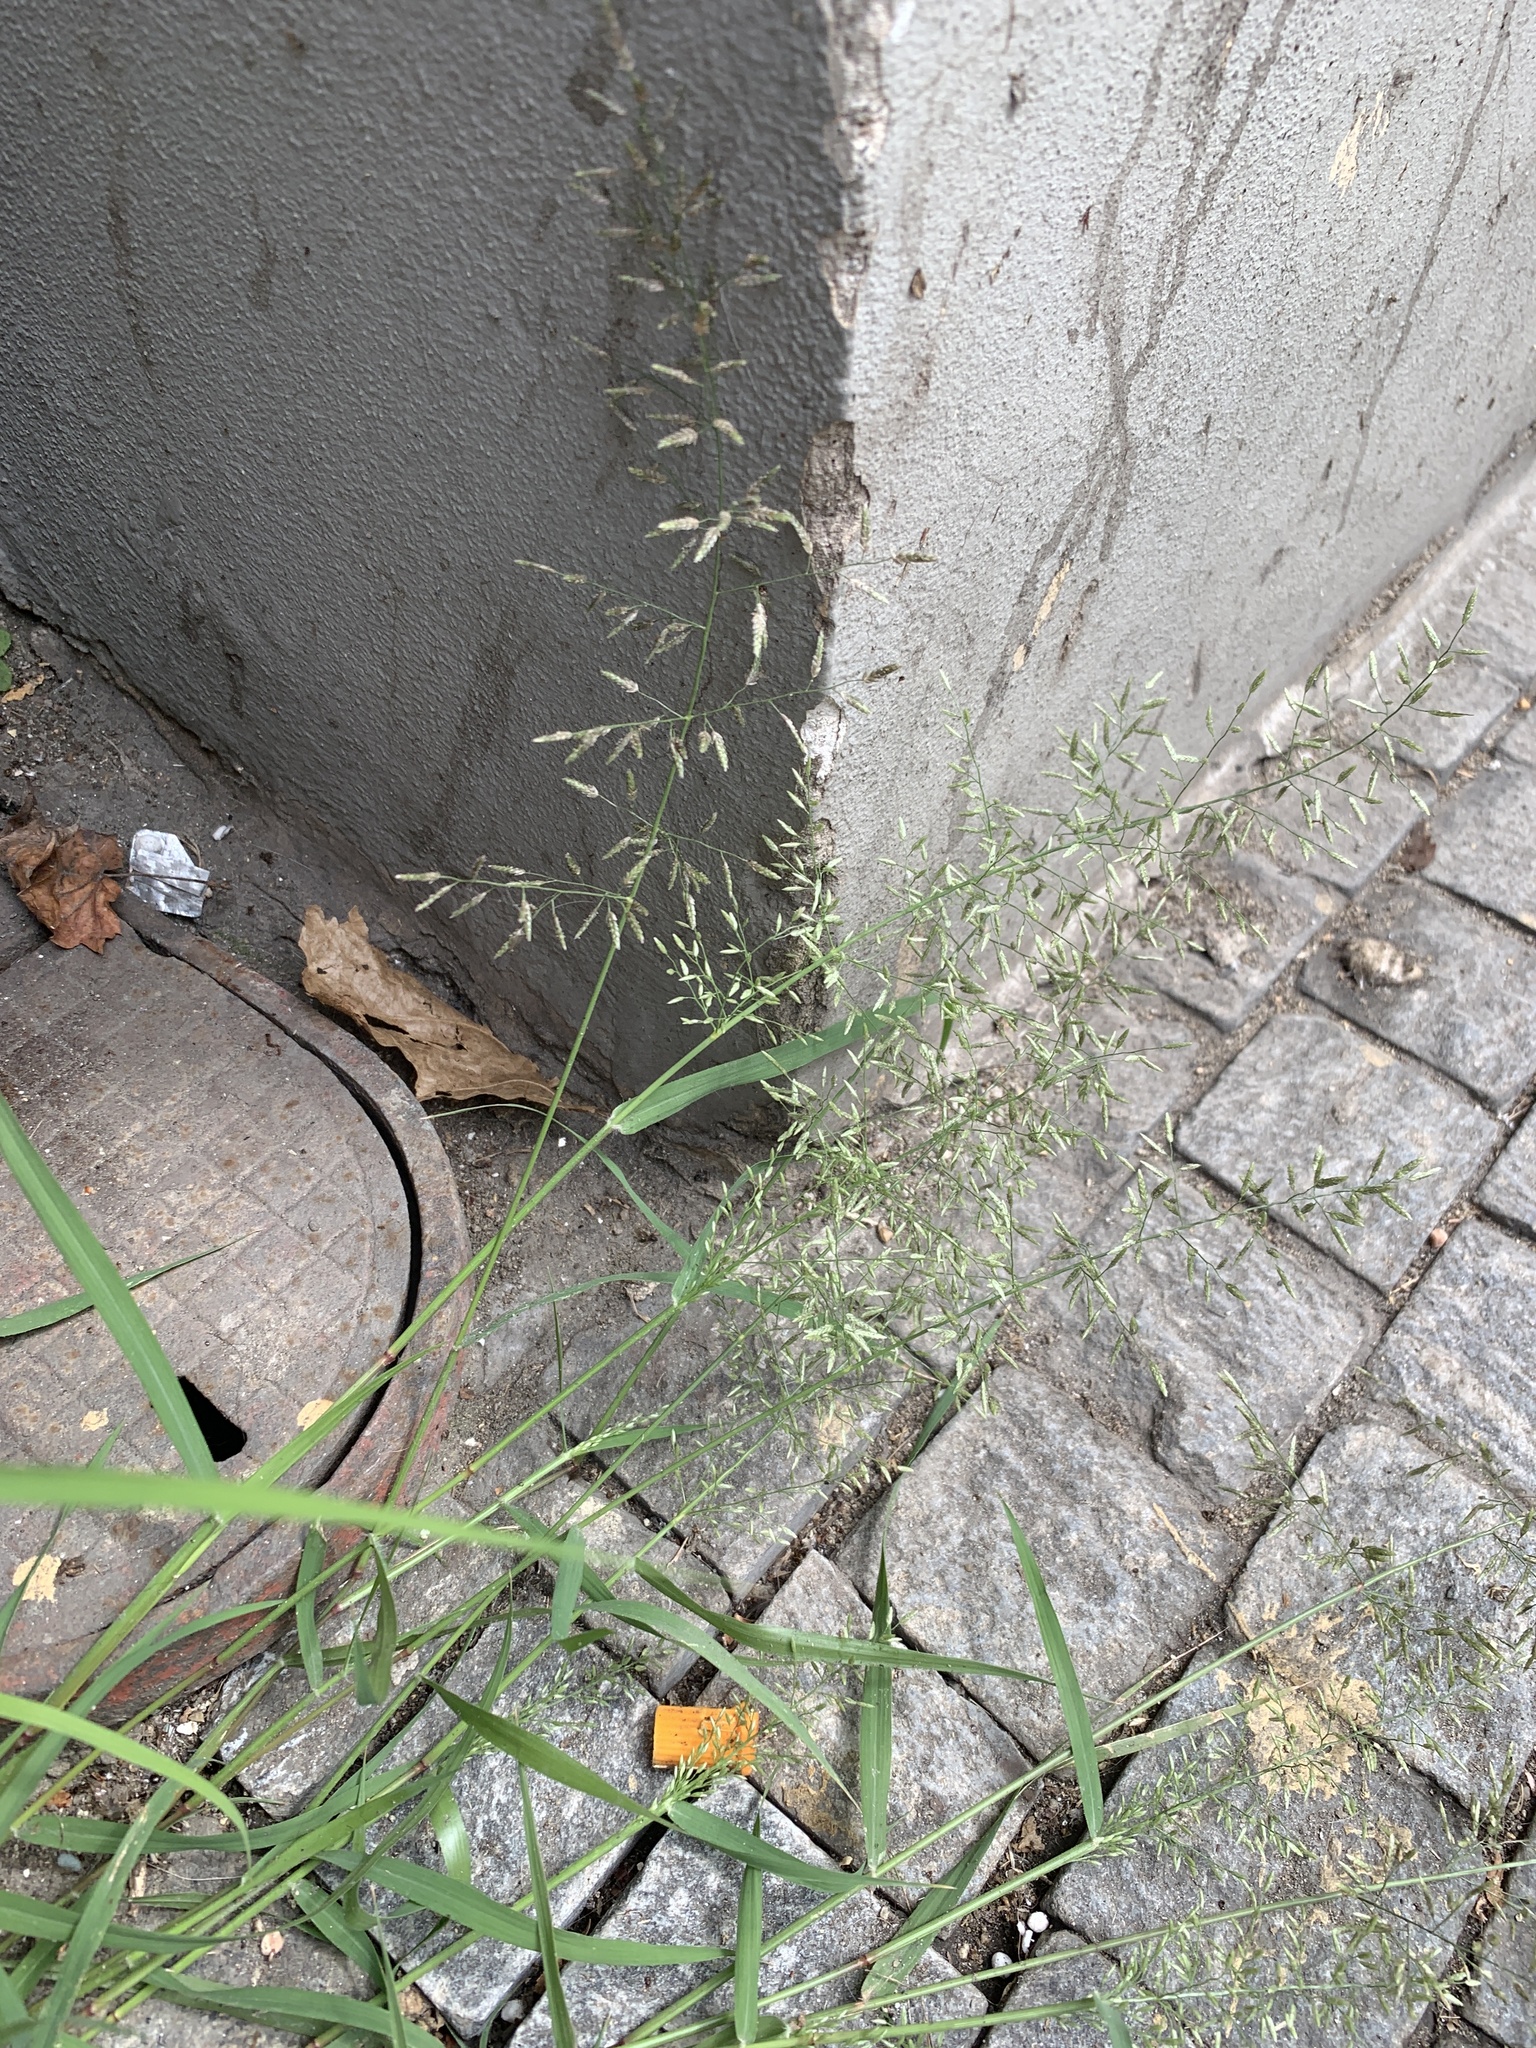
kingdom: Plantae
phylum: Tracheophyta
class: Liliopsida
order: Poales
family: Poaceae
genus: Eragrostis
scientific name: Eragrostis minor
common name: Small love-grass
